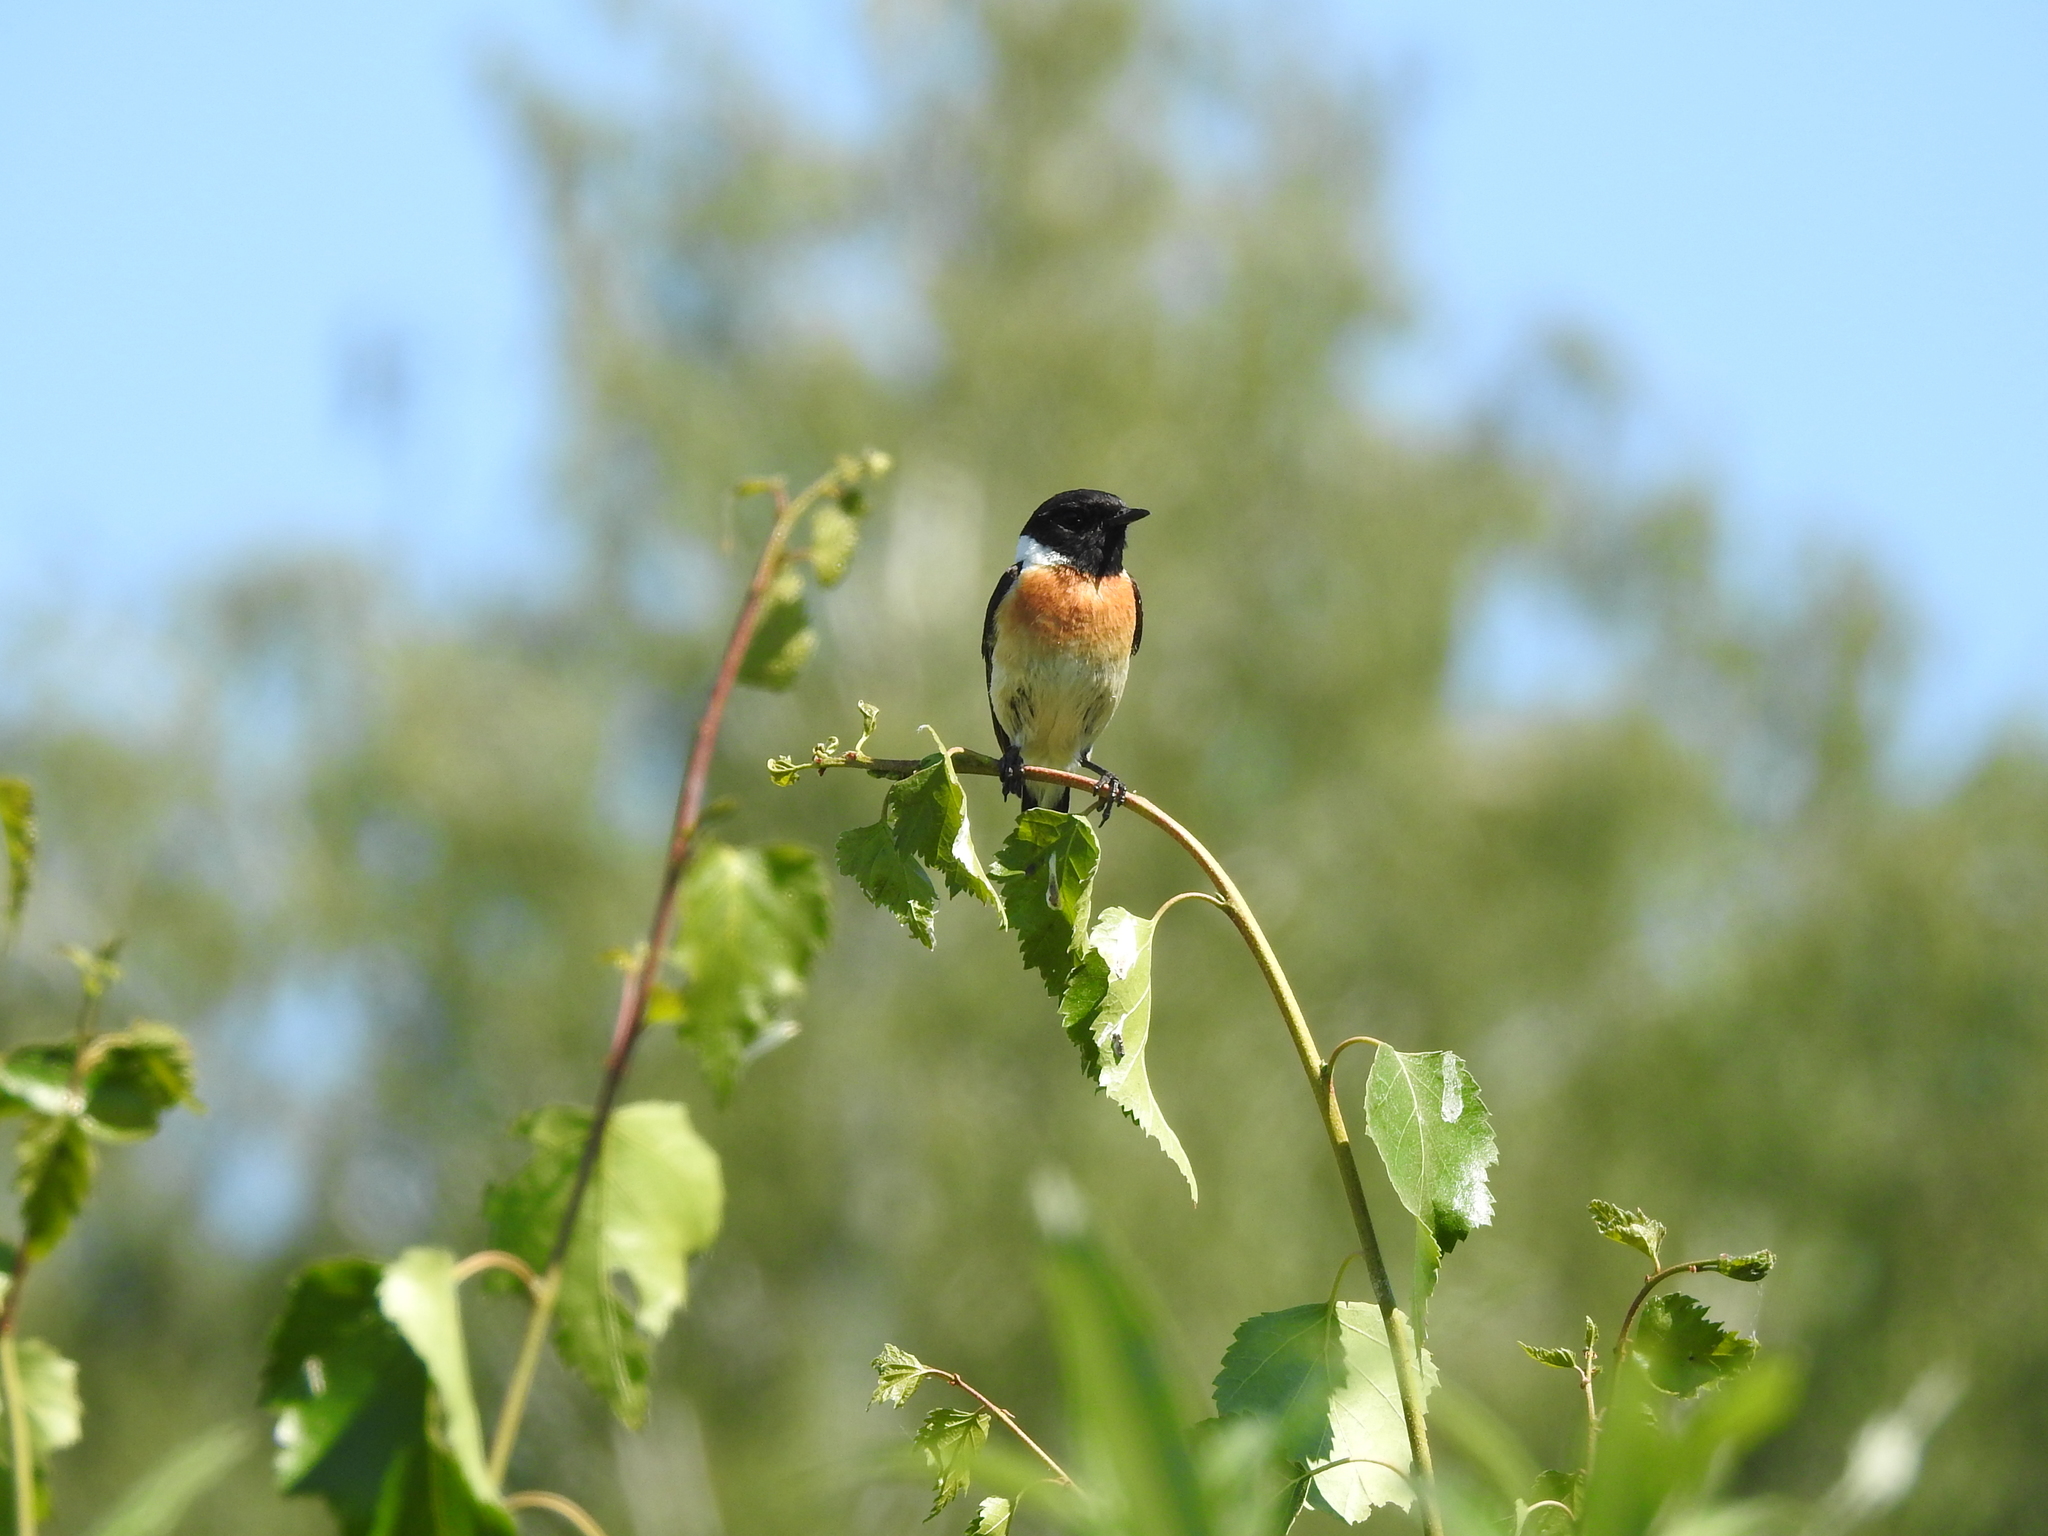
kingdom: Animalia
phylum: Chordata
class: Aves
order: Passeriformes
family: Muscicapidae
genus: Saxicola
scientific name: Saxicola maurus
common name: Siberian stonechat
